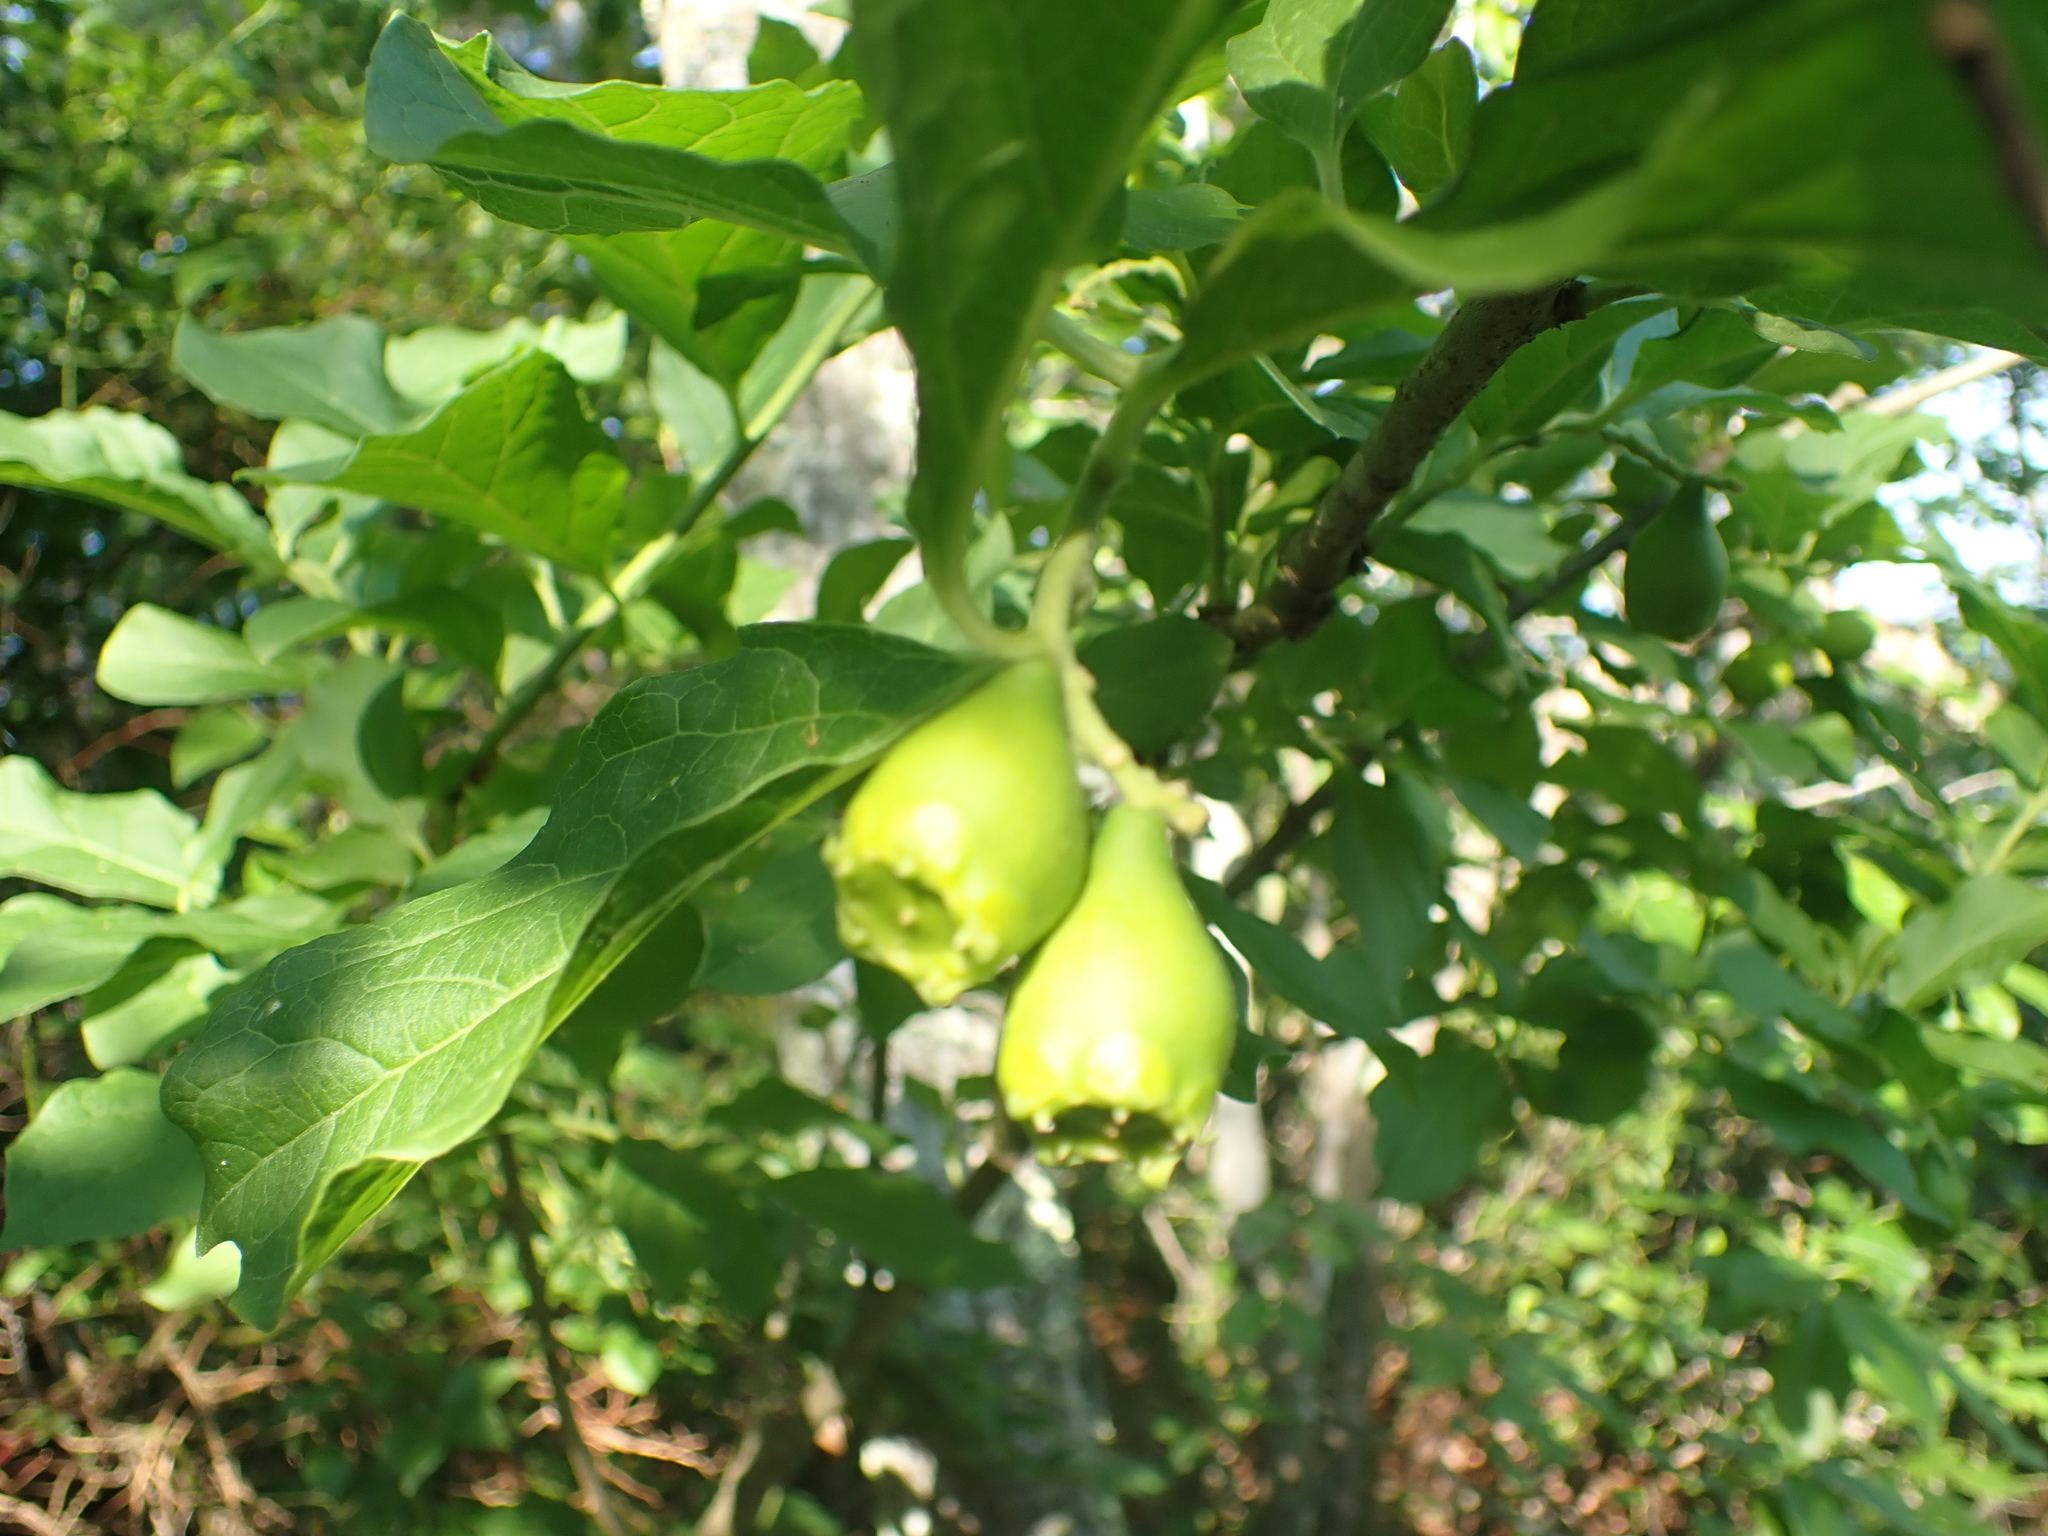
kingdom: Plantae
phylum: Tracheophyta
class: Magnoliopsida
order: Santalales
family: Cervantesiaceae
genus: Pyrularia
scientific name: Pyrularia pubera
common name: Oilnut
